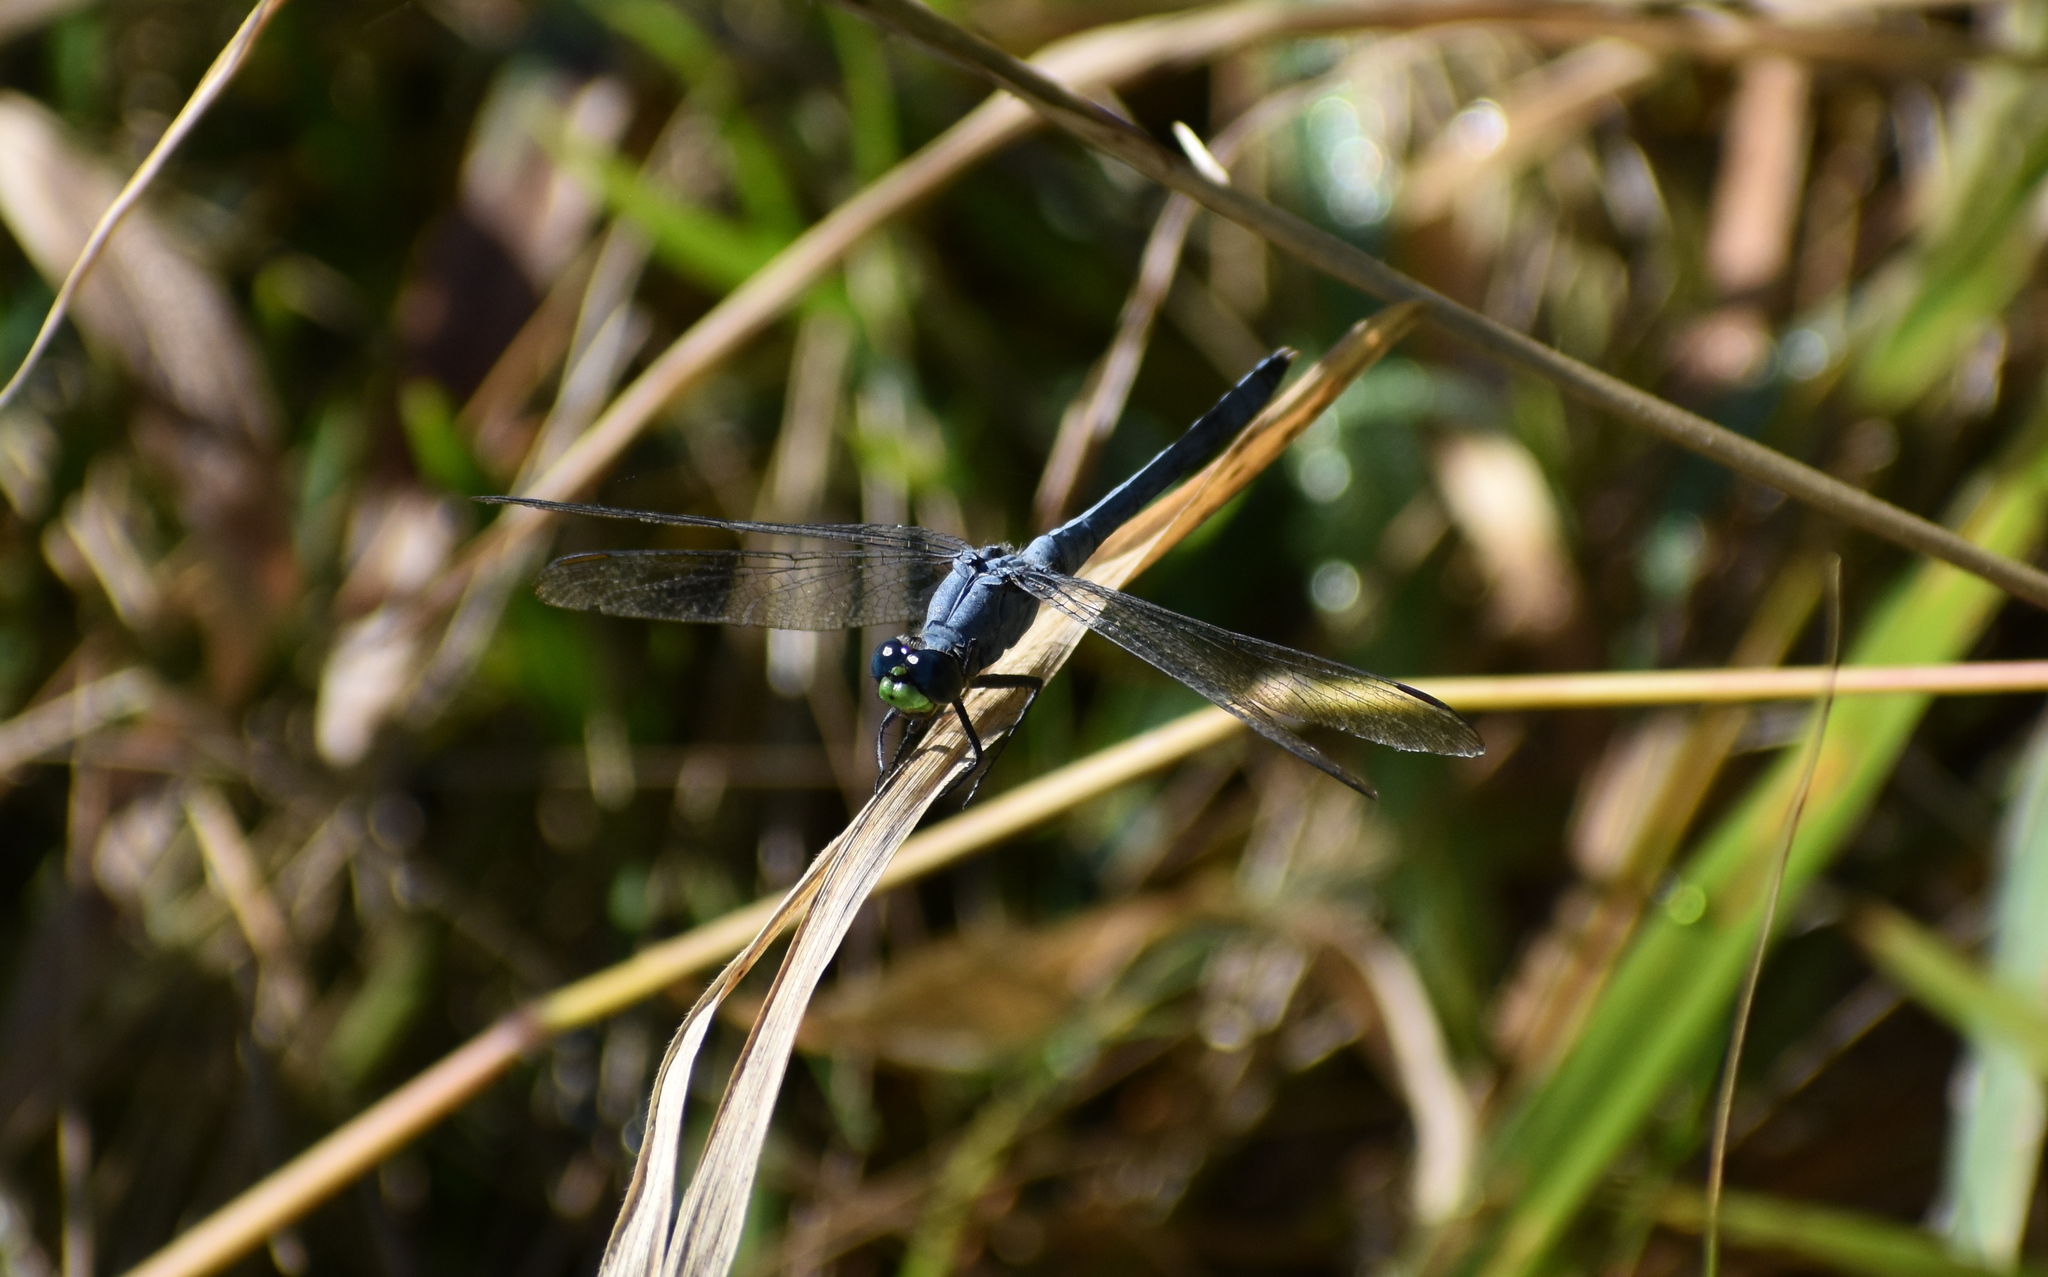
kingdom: Animalia
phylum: Arthropoda
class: Insecta
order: Odonata
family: Libellulidae
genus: Erythemis
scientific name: Erythemis simplicicollis
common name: Eastern pondhawk
